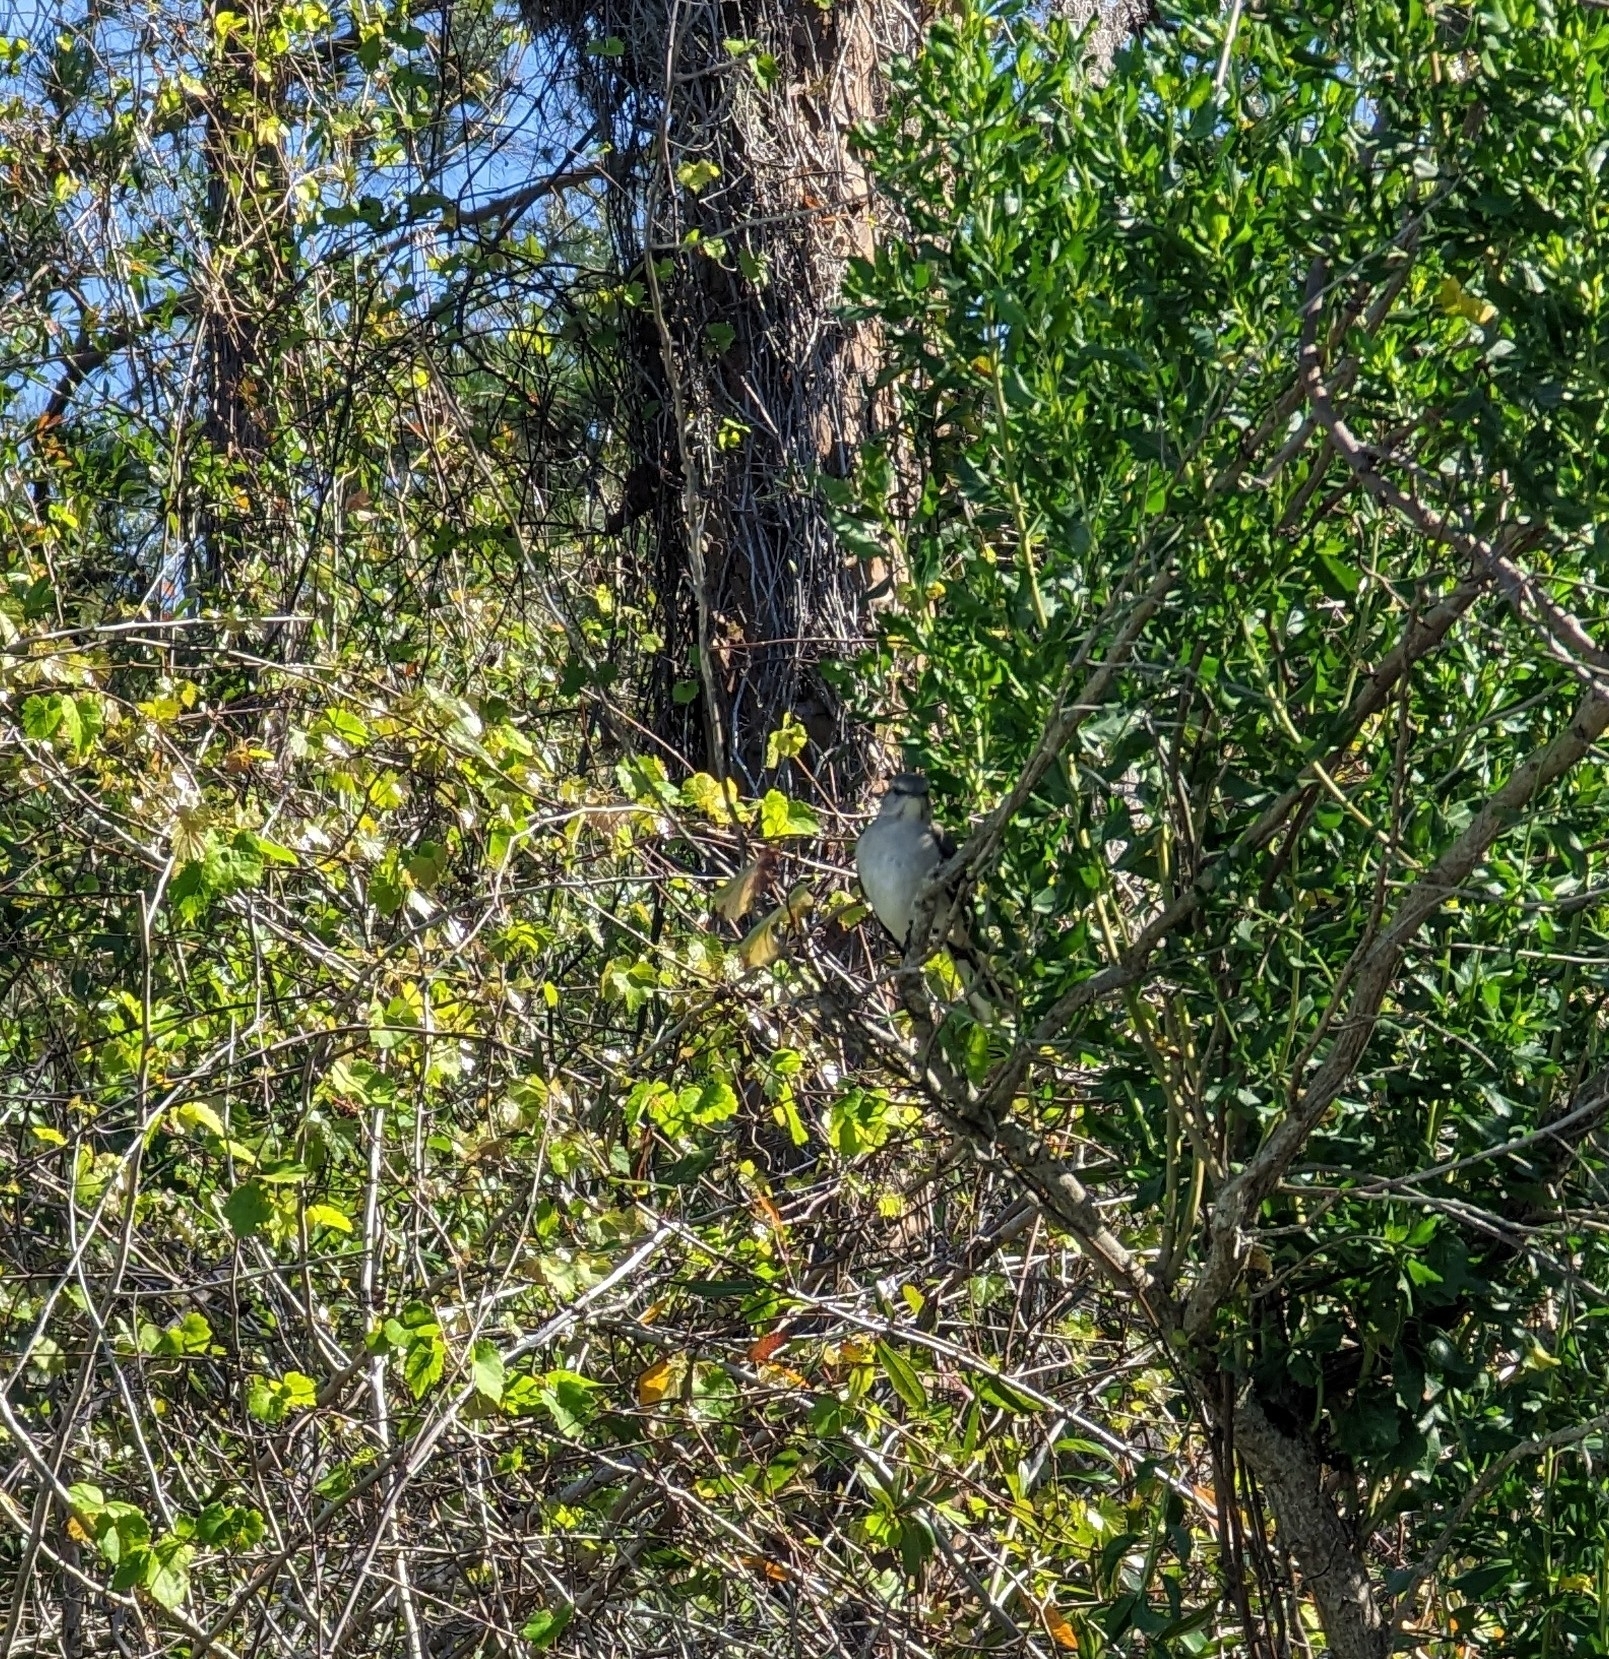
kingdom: Animalia
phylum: Chordata
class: Aves
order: Passeriformes
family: Mimidae
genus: Mimus
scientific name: Mimus polyglottos
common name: Northern mockingbird
